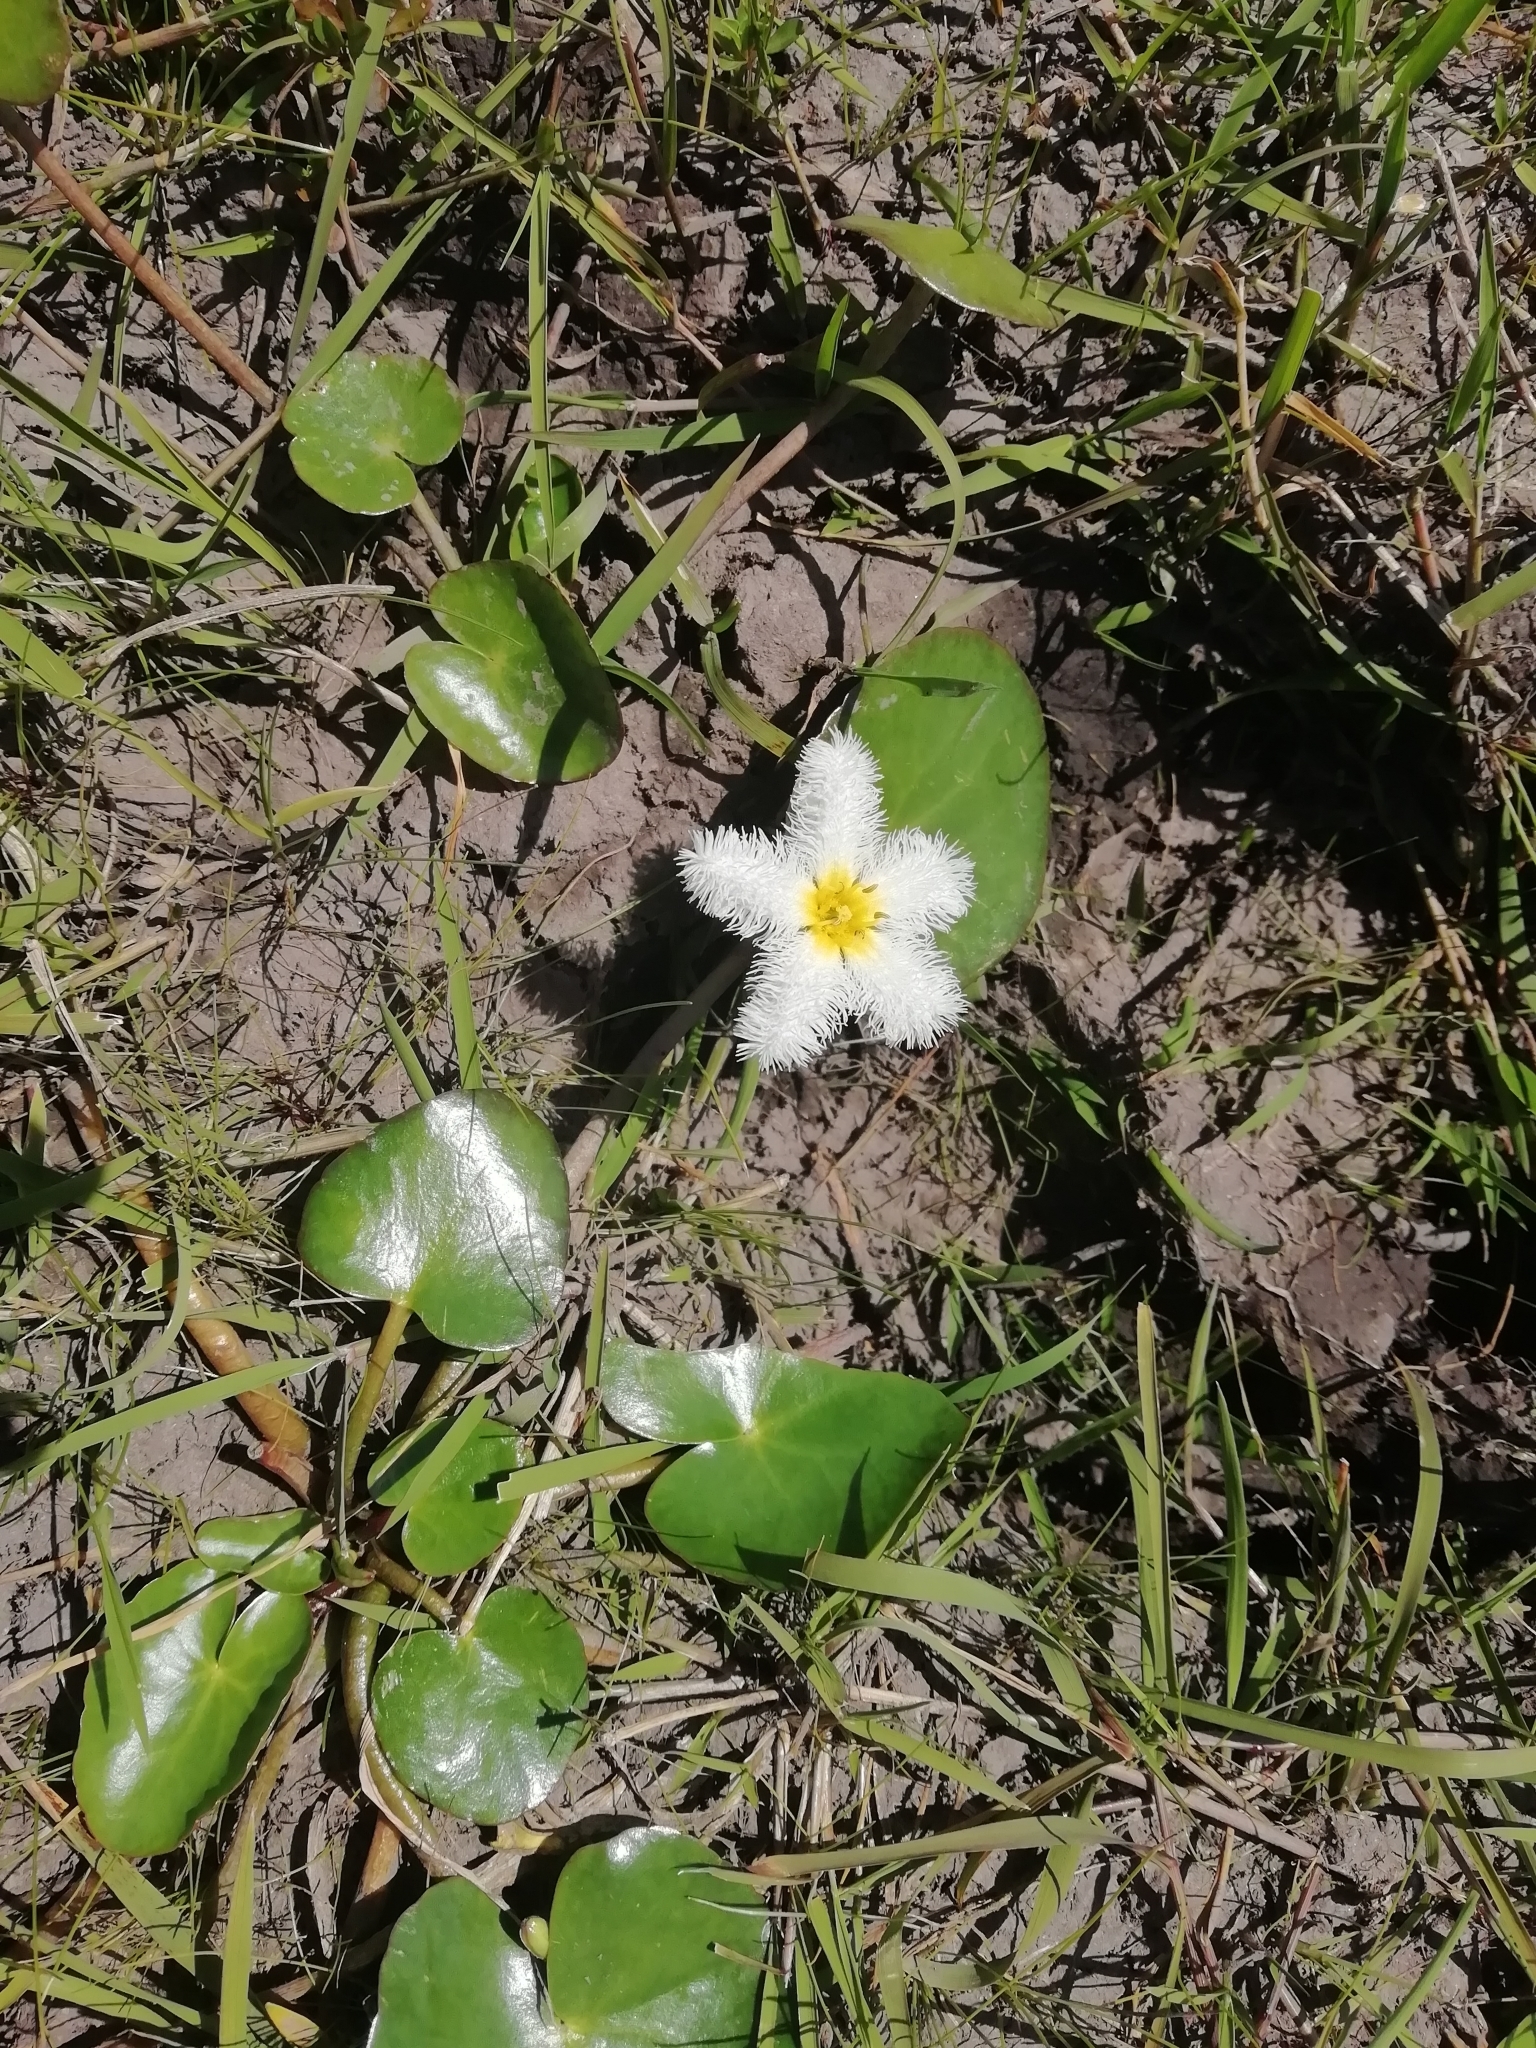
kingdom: Plantae
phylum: Tracheophyta
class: Magnoliopsida
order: Asterales
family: Menyanthaceae
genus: Nymphoides
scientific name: Nymphoides humboldtiana
